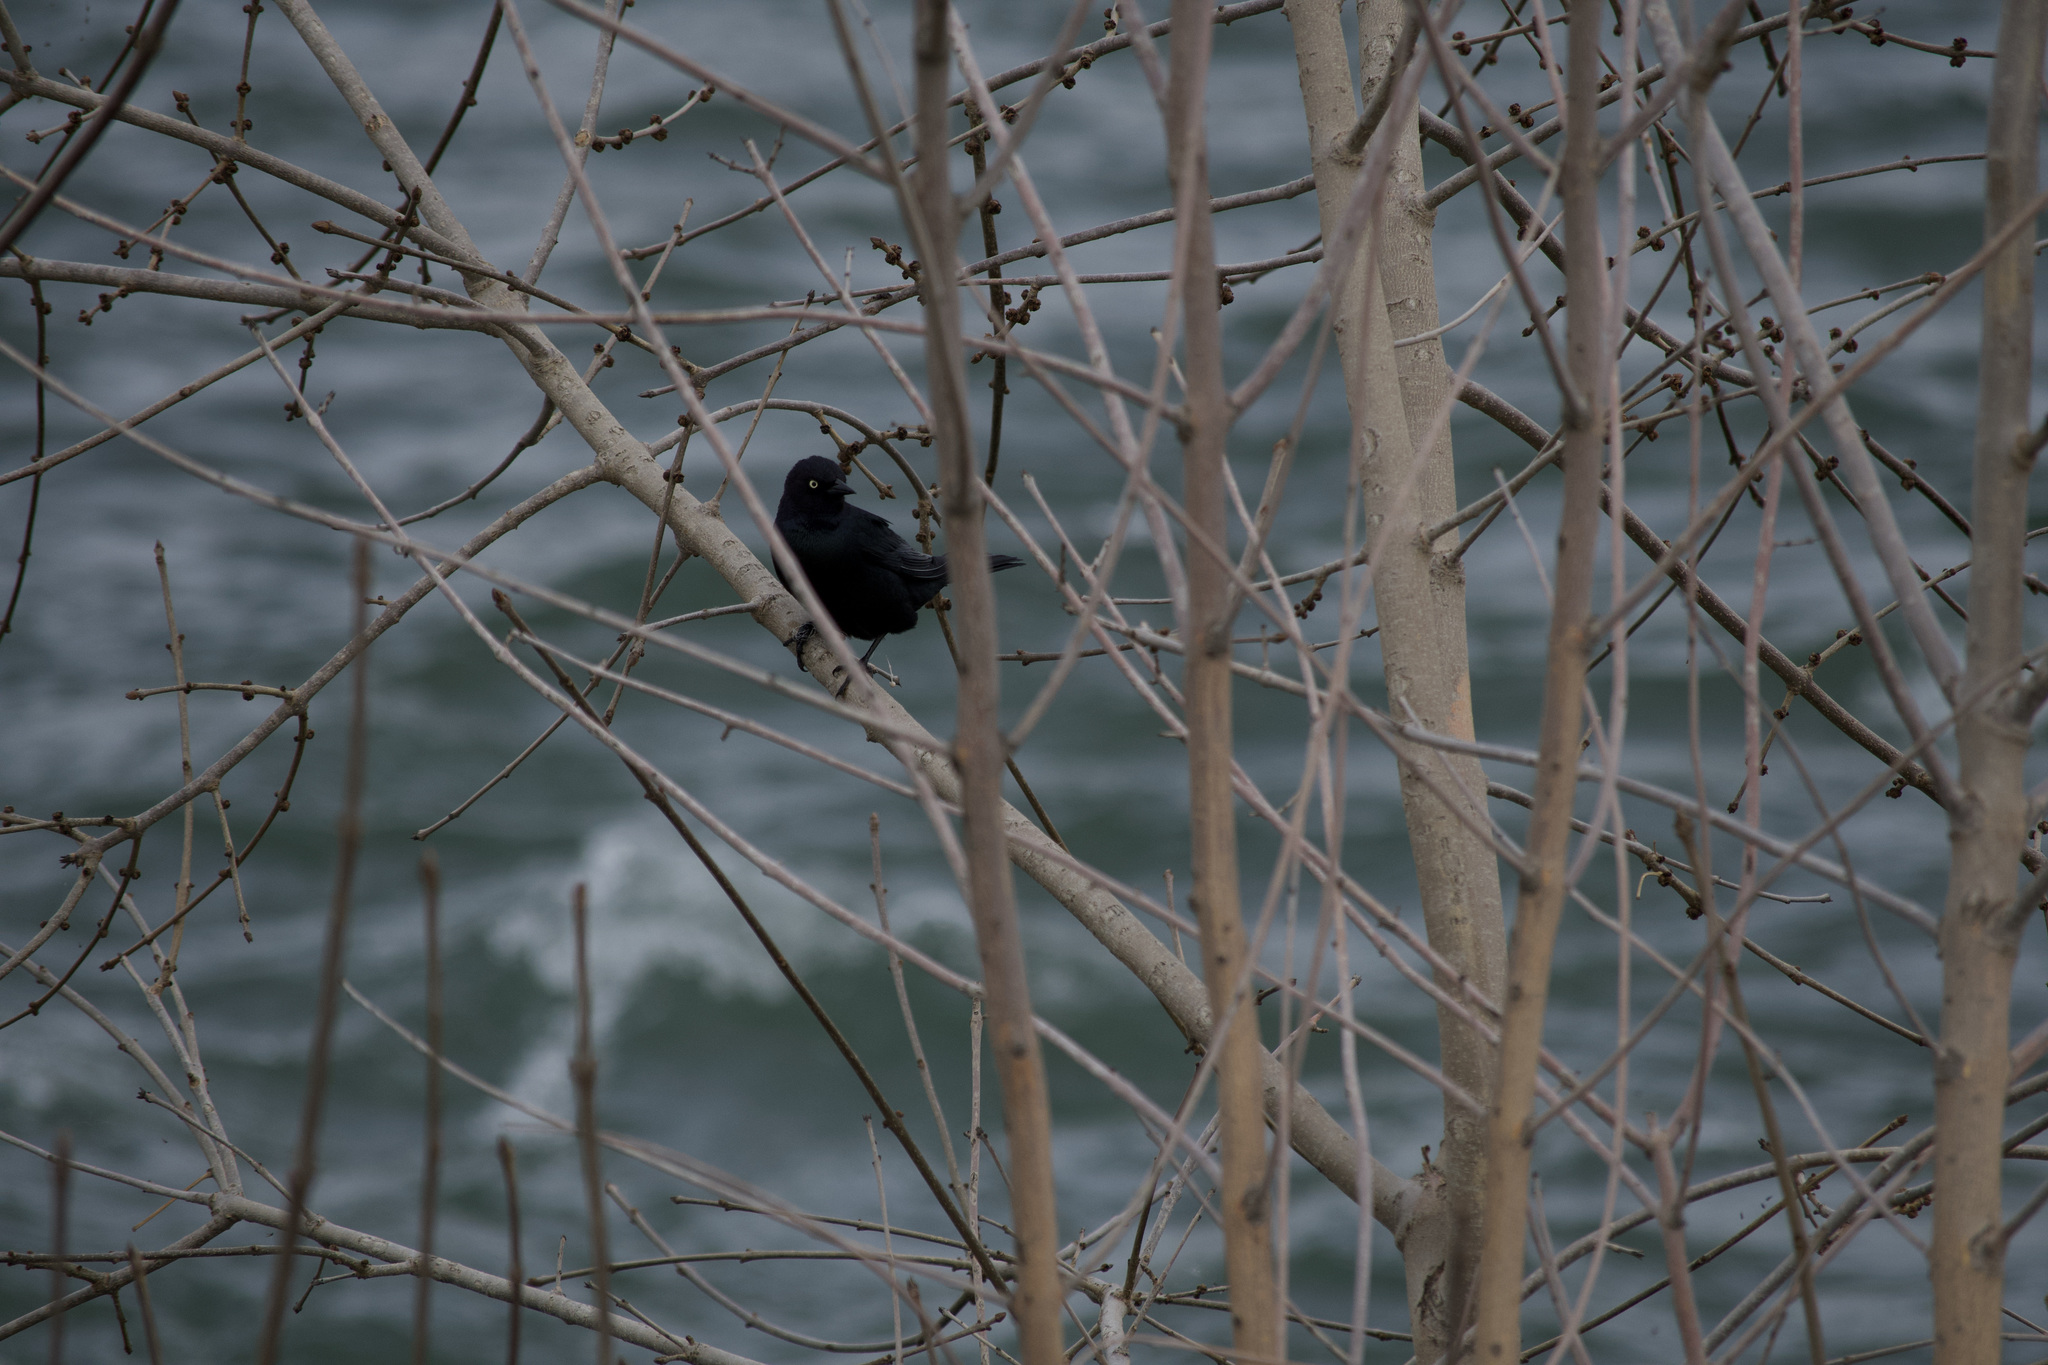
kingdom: Animalia
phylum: Chordata
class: Aves
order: Passeriformes
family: Icteridae
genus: Euphagus
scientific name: Euphagus cyanocephalus
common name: Brewer's blackbird
